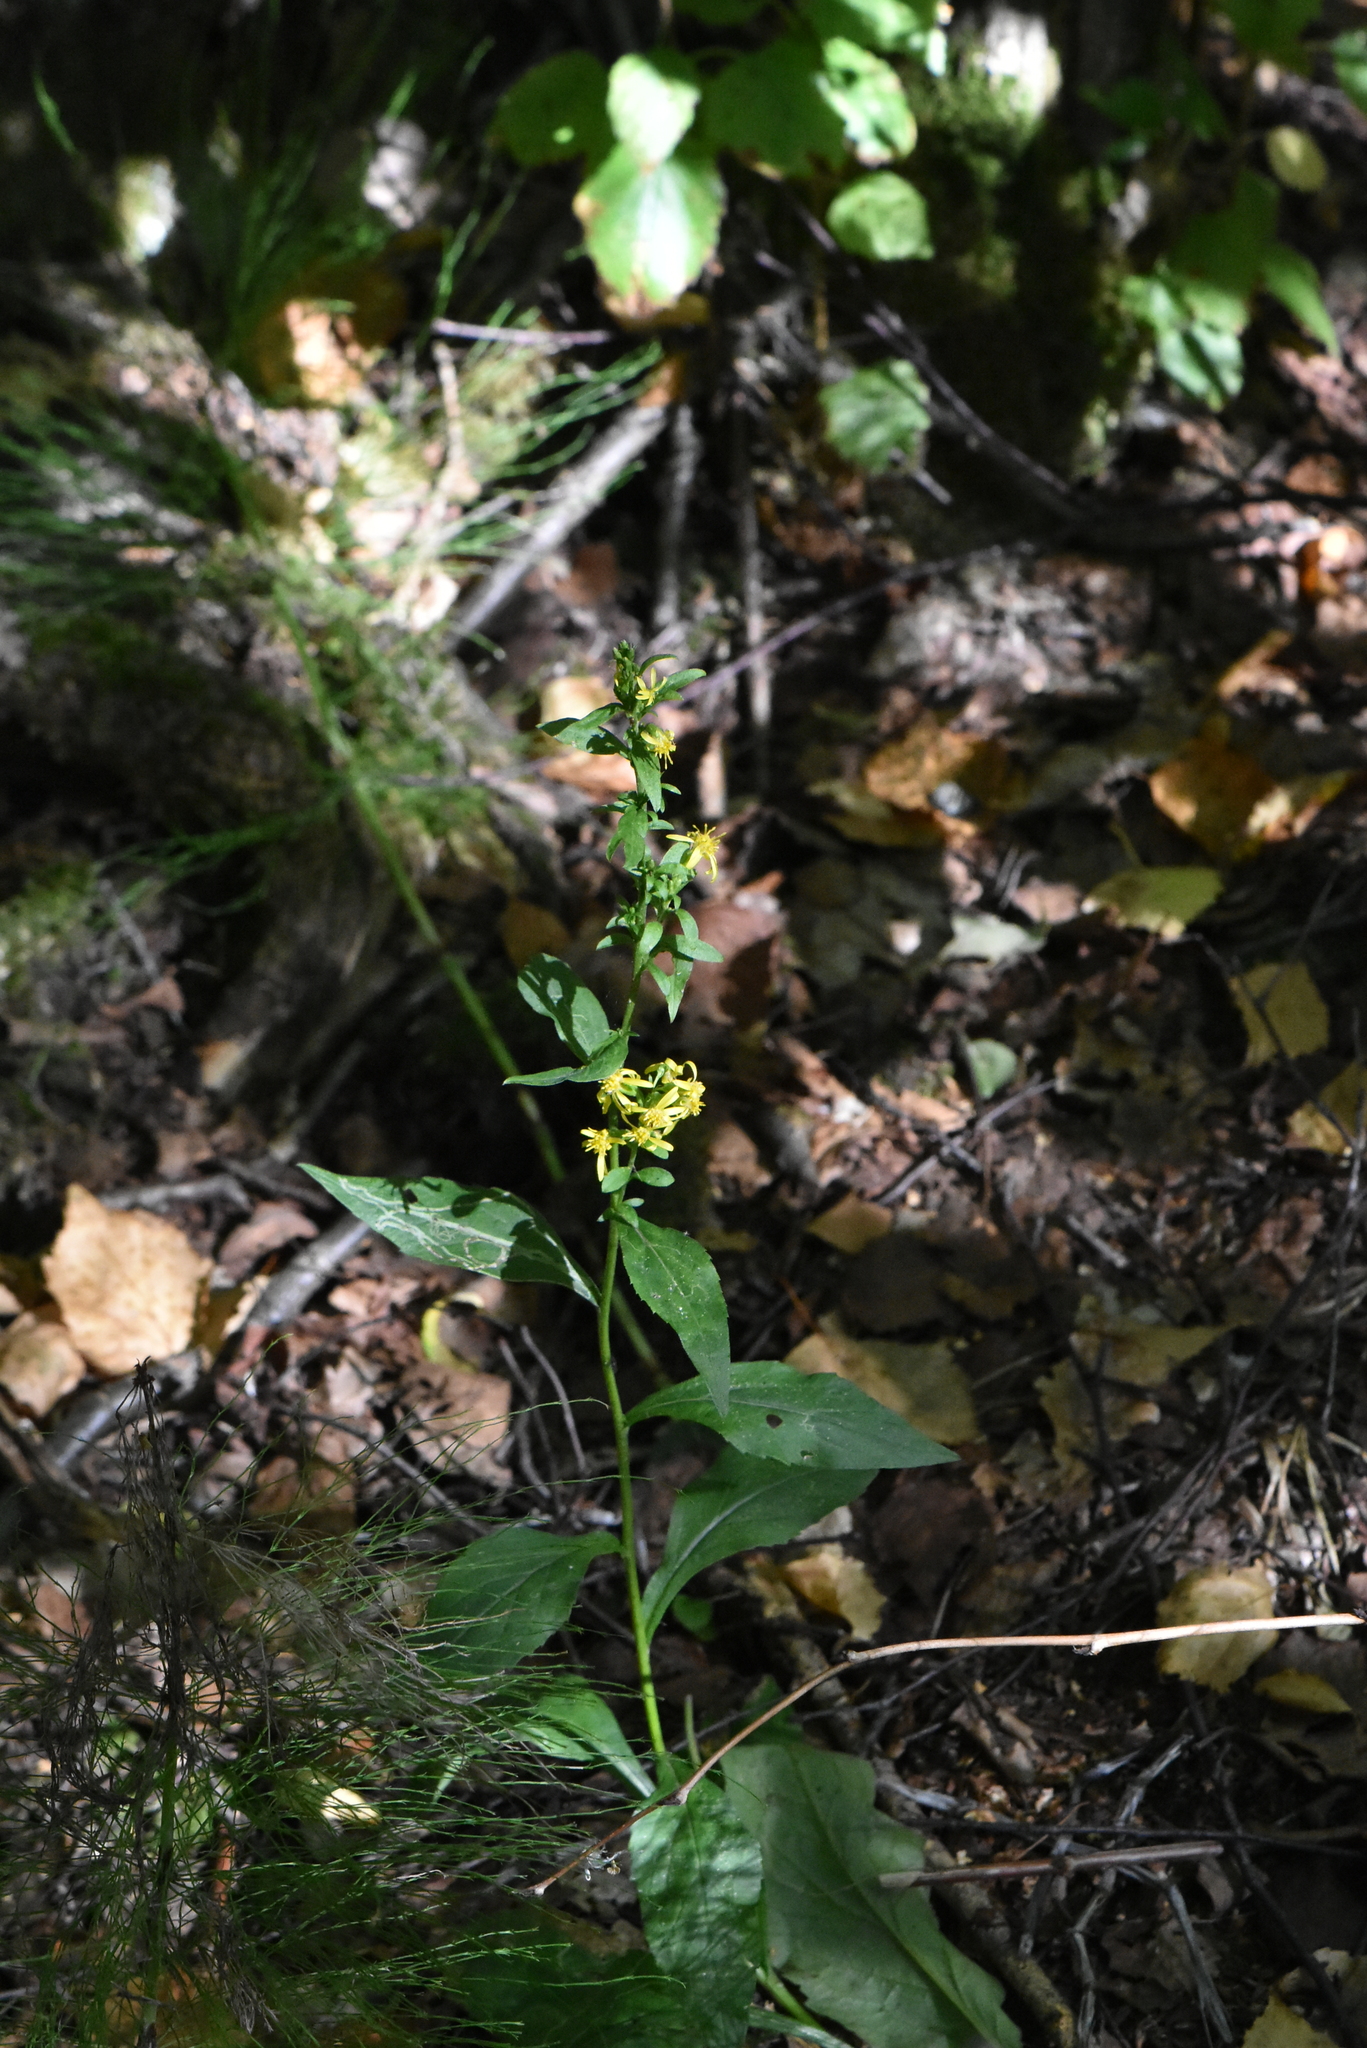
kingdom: Plantae
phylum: Tracheophyta
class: Magnoliopsida
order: Asterales
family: Asteraceae
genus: Solidago
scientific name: Solidago virgaurea
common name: Goldenrod
